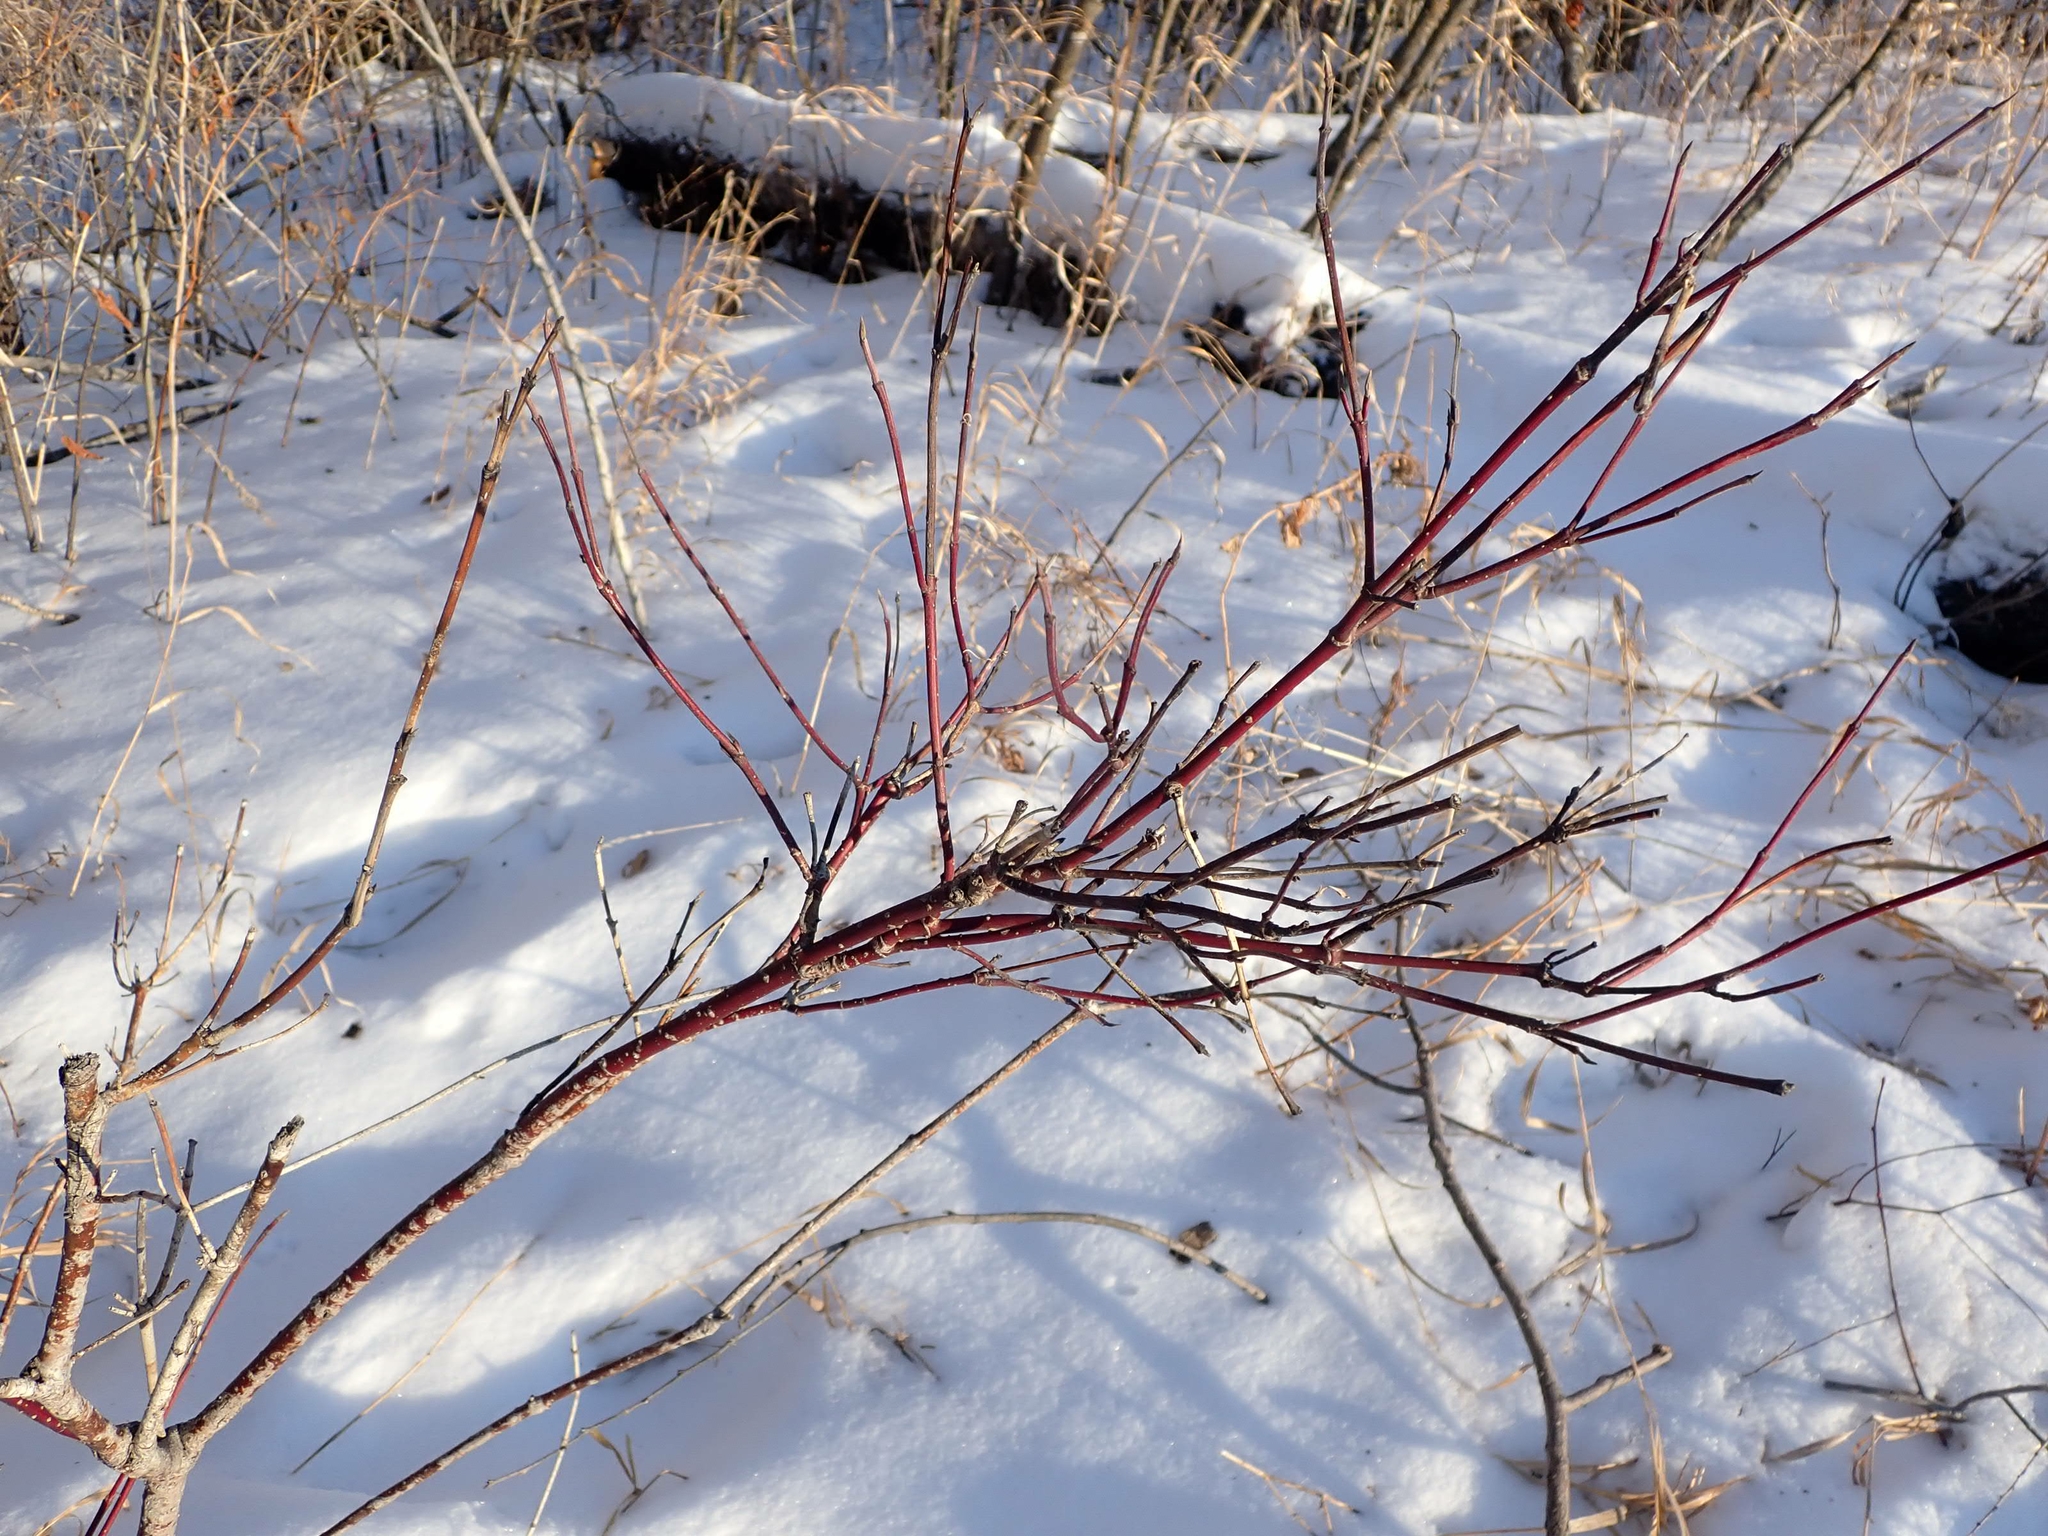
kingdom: Plantae
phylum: Tracheophyta
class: Magnoliopsida
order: Cornales
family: Cornaceae
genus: Cornus
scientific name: Cornus sericea
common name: Red-osier dogwood
